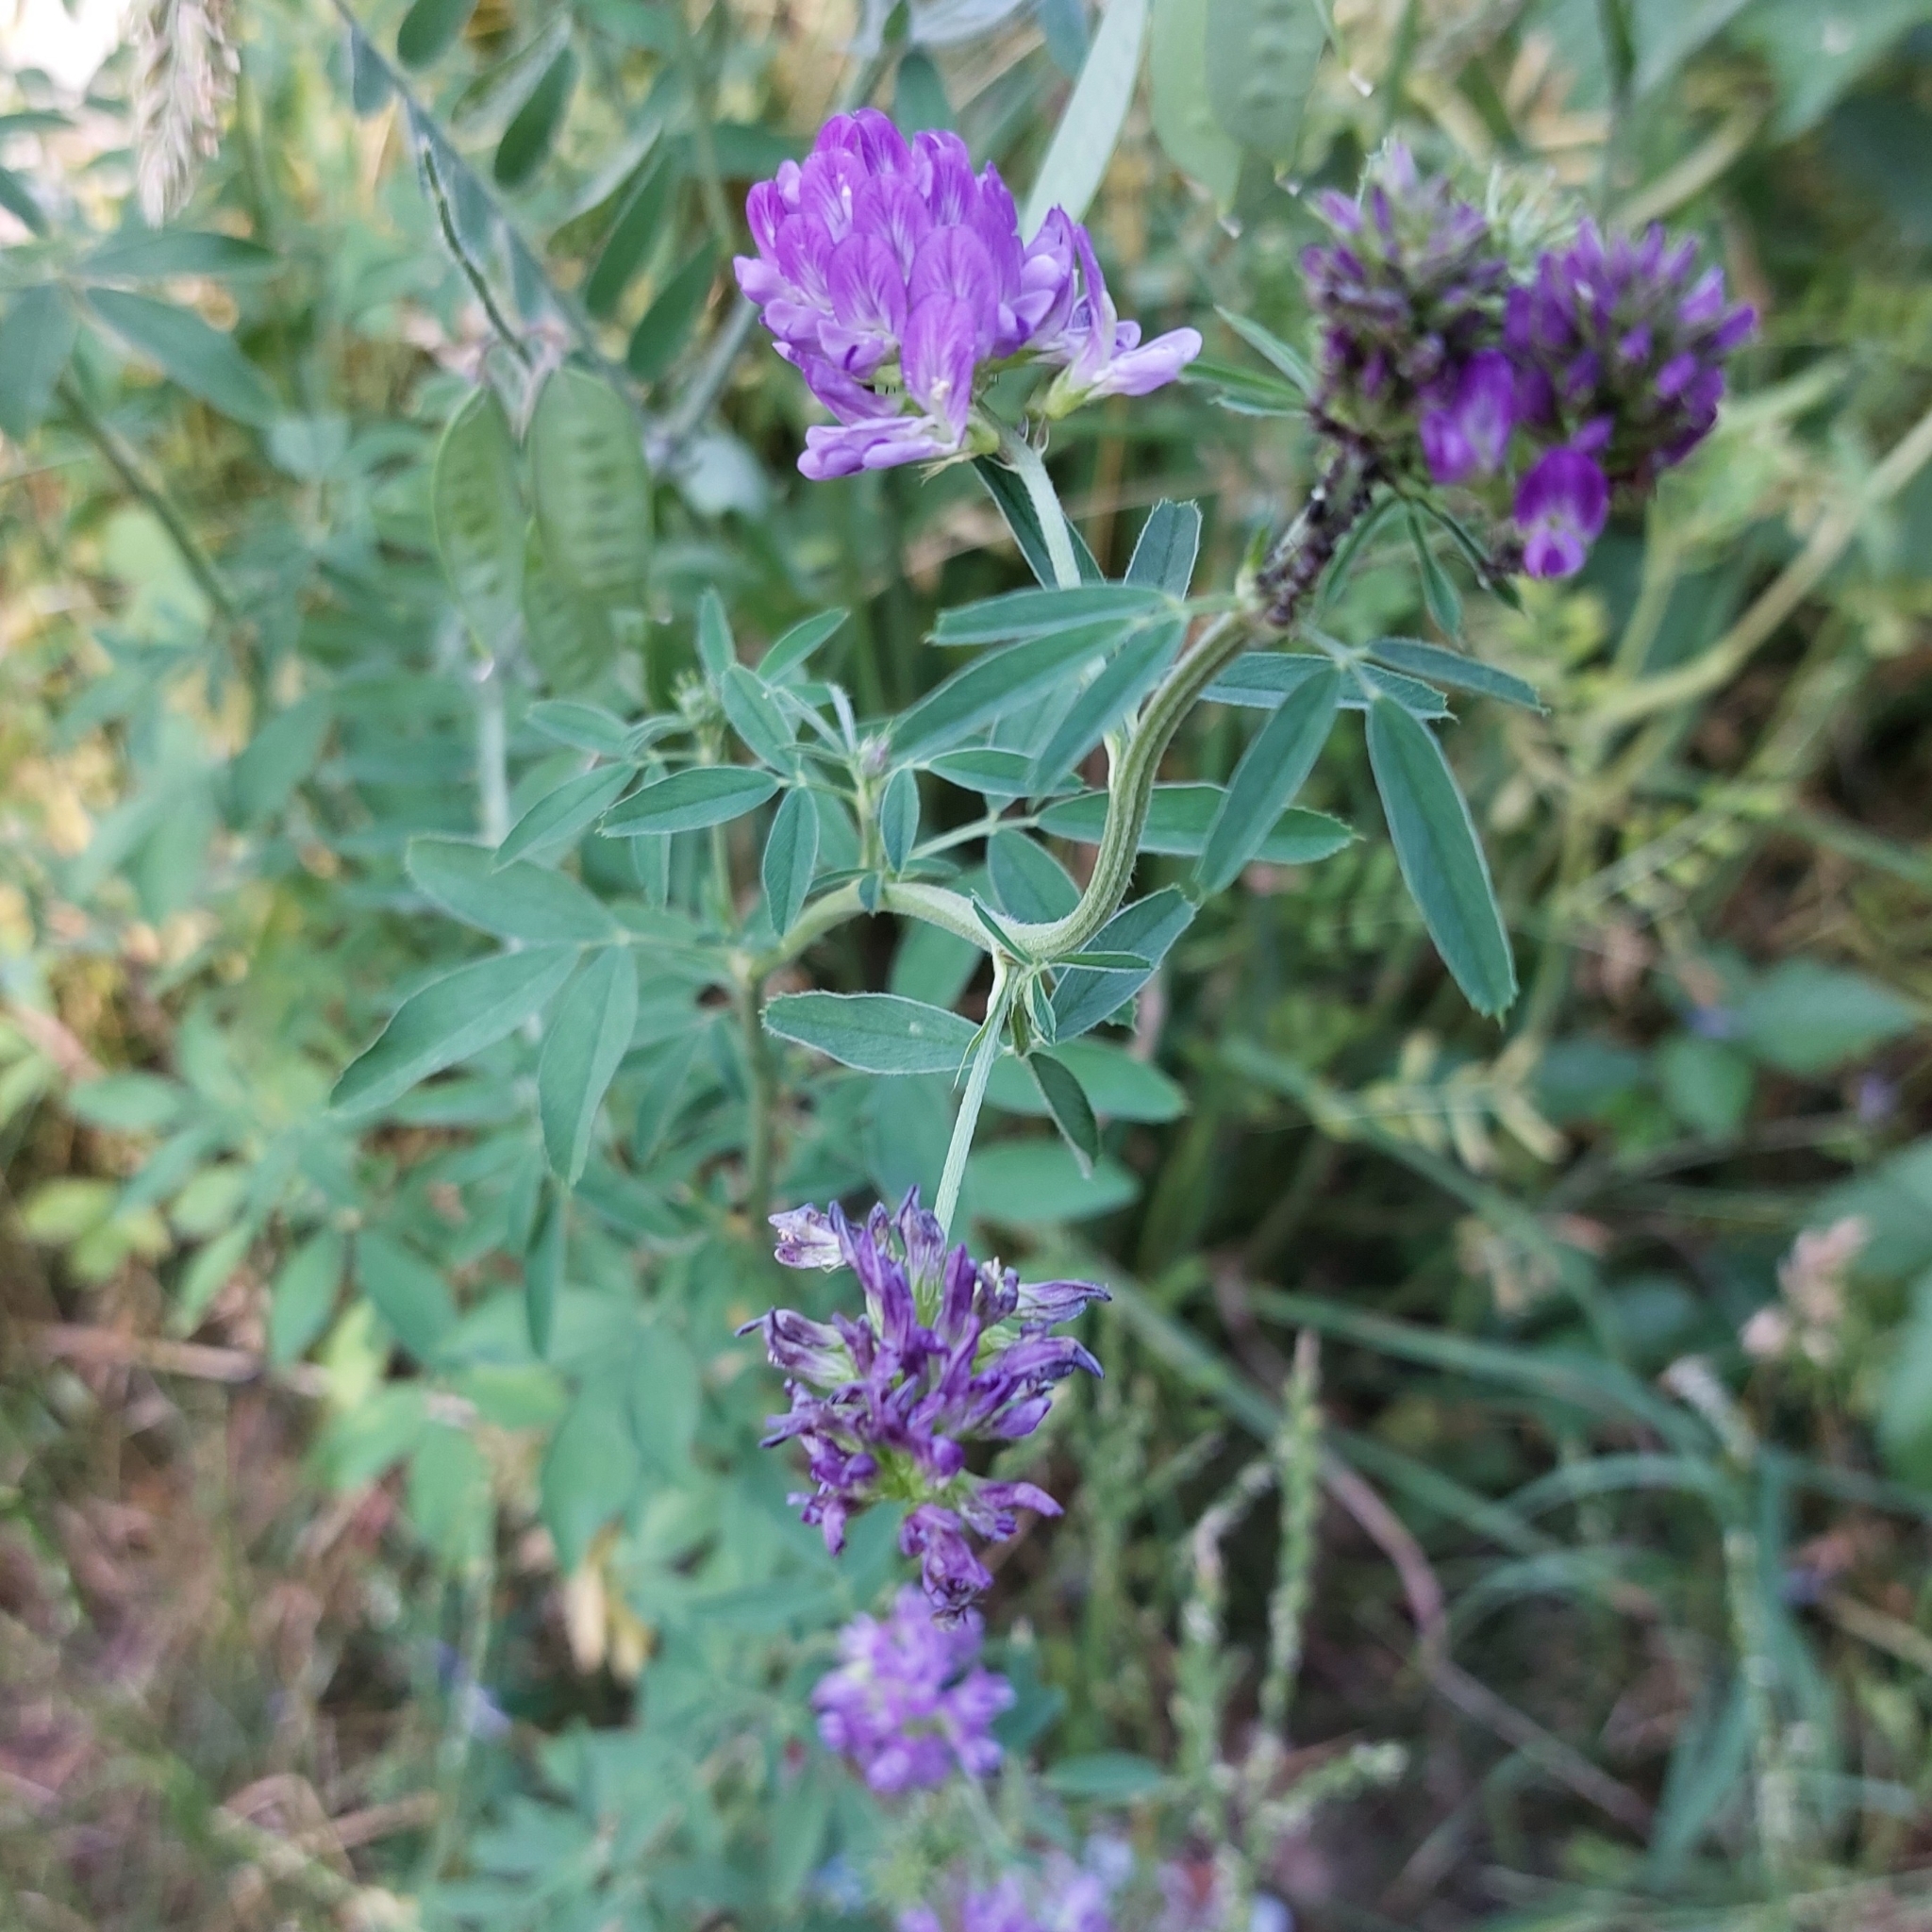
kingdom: Plantae
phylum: Tracheophyta
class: Magnoliopsida
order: Fabales
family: Fabaceae
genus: Medicago
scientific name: Medicago sativa
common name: Alfalfa
